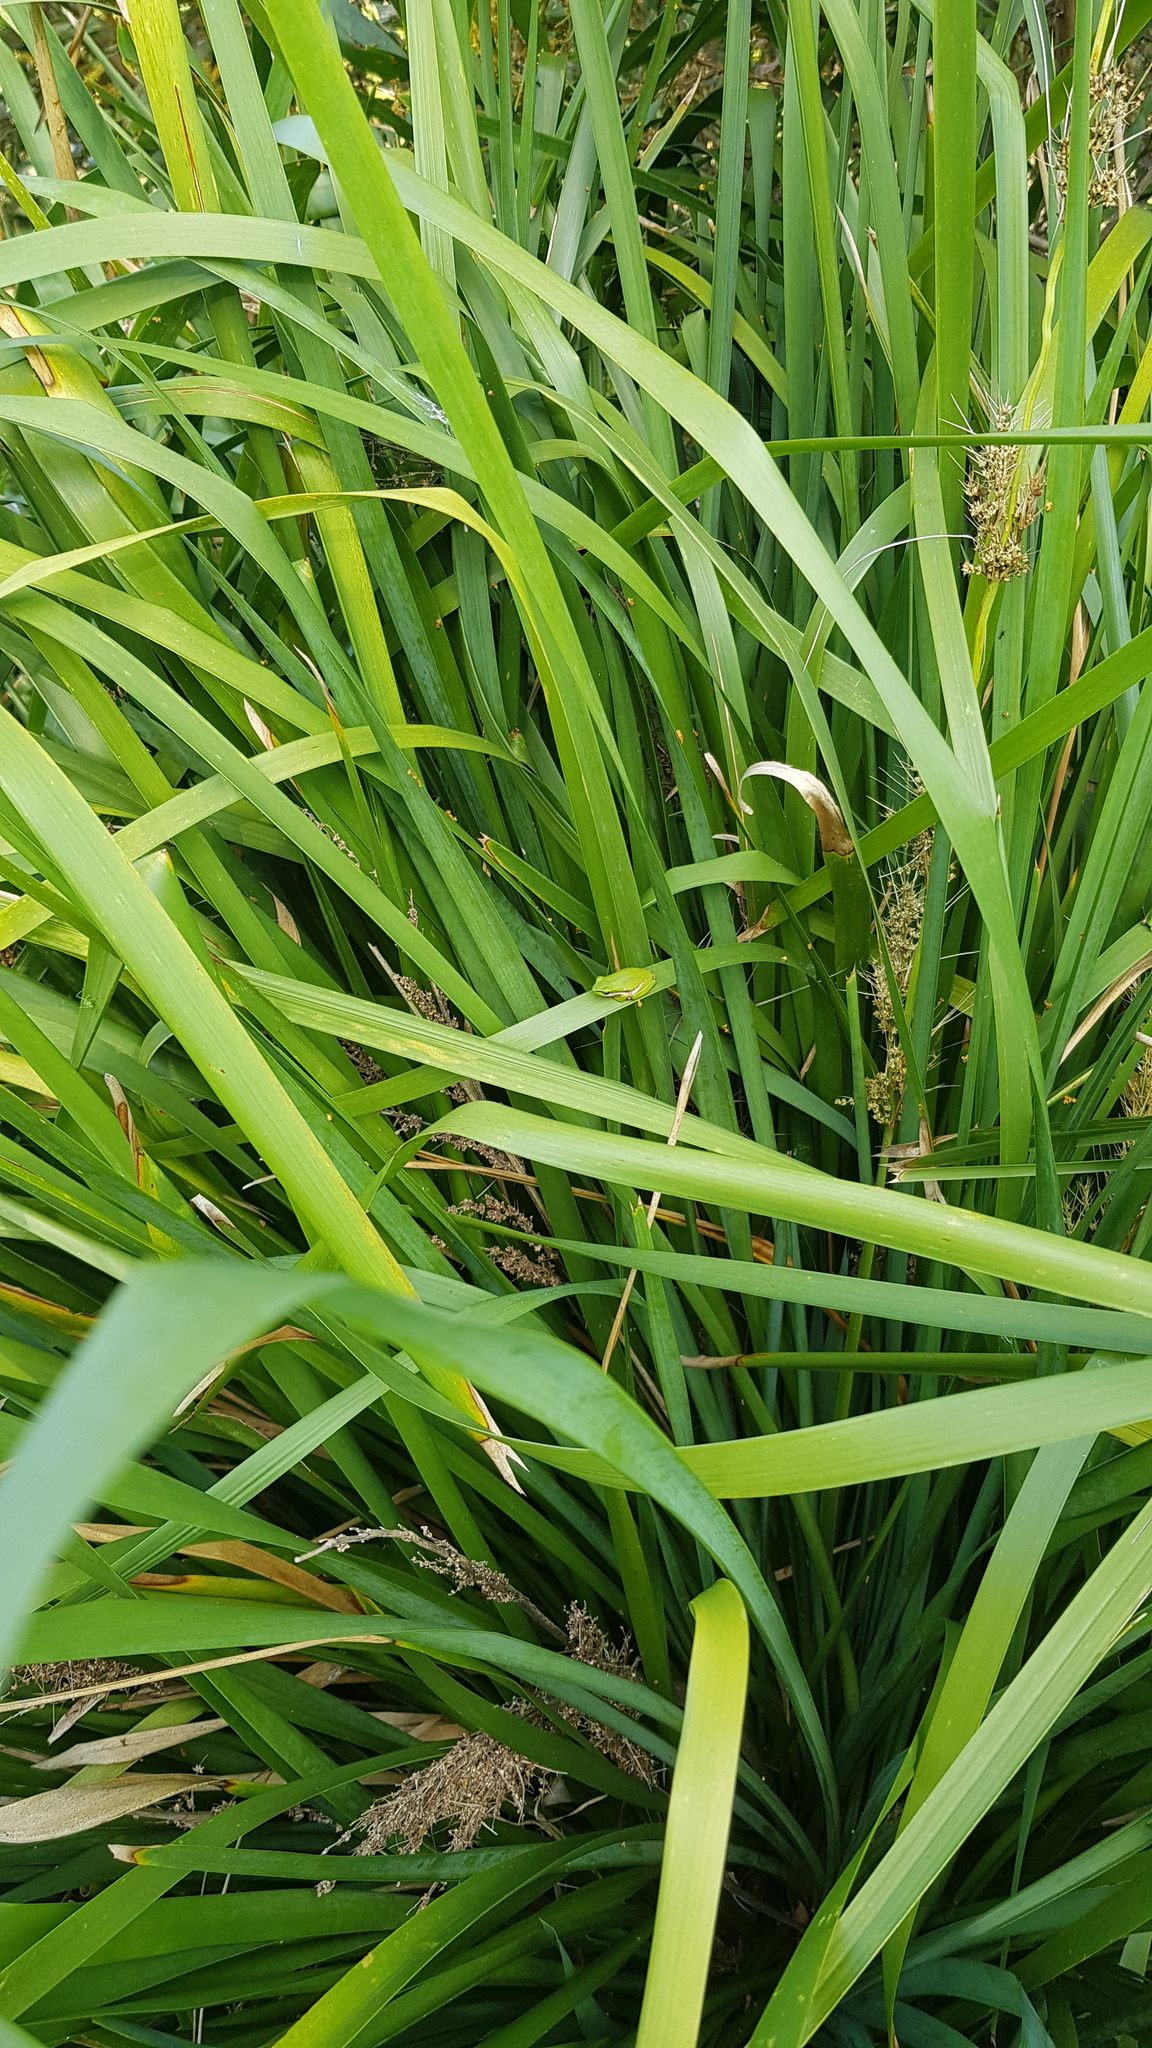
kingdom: Animalia
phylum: Chordata
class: Amphibia
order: Anura
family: Pelodryadidae
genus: Litoria
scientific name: Litoria fallax
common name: Eastern dwarf treefrog
